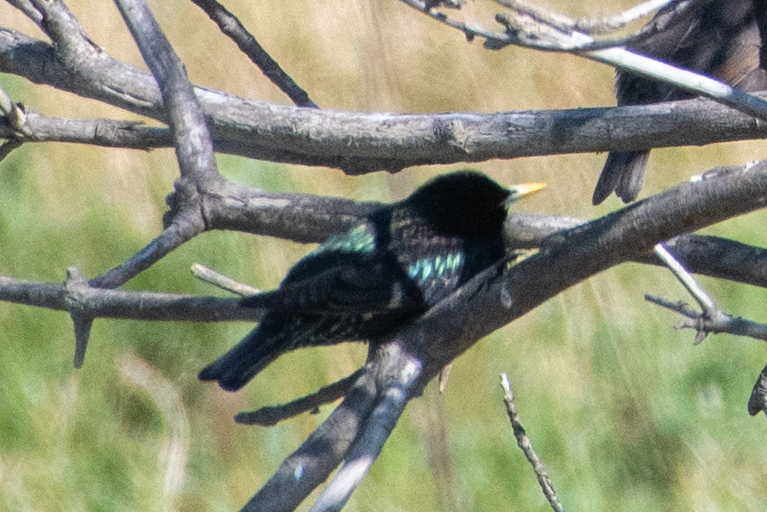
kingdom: Animalia
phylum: Chordata
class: Aves
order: Passeriformes
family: Sturnidae
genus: Sturnus
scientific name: Sturnus vulgaris
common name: Common starling
